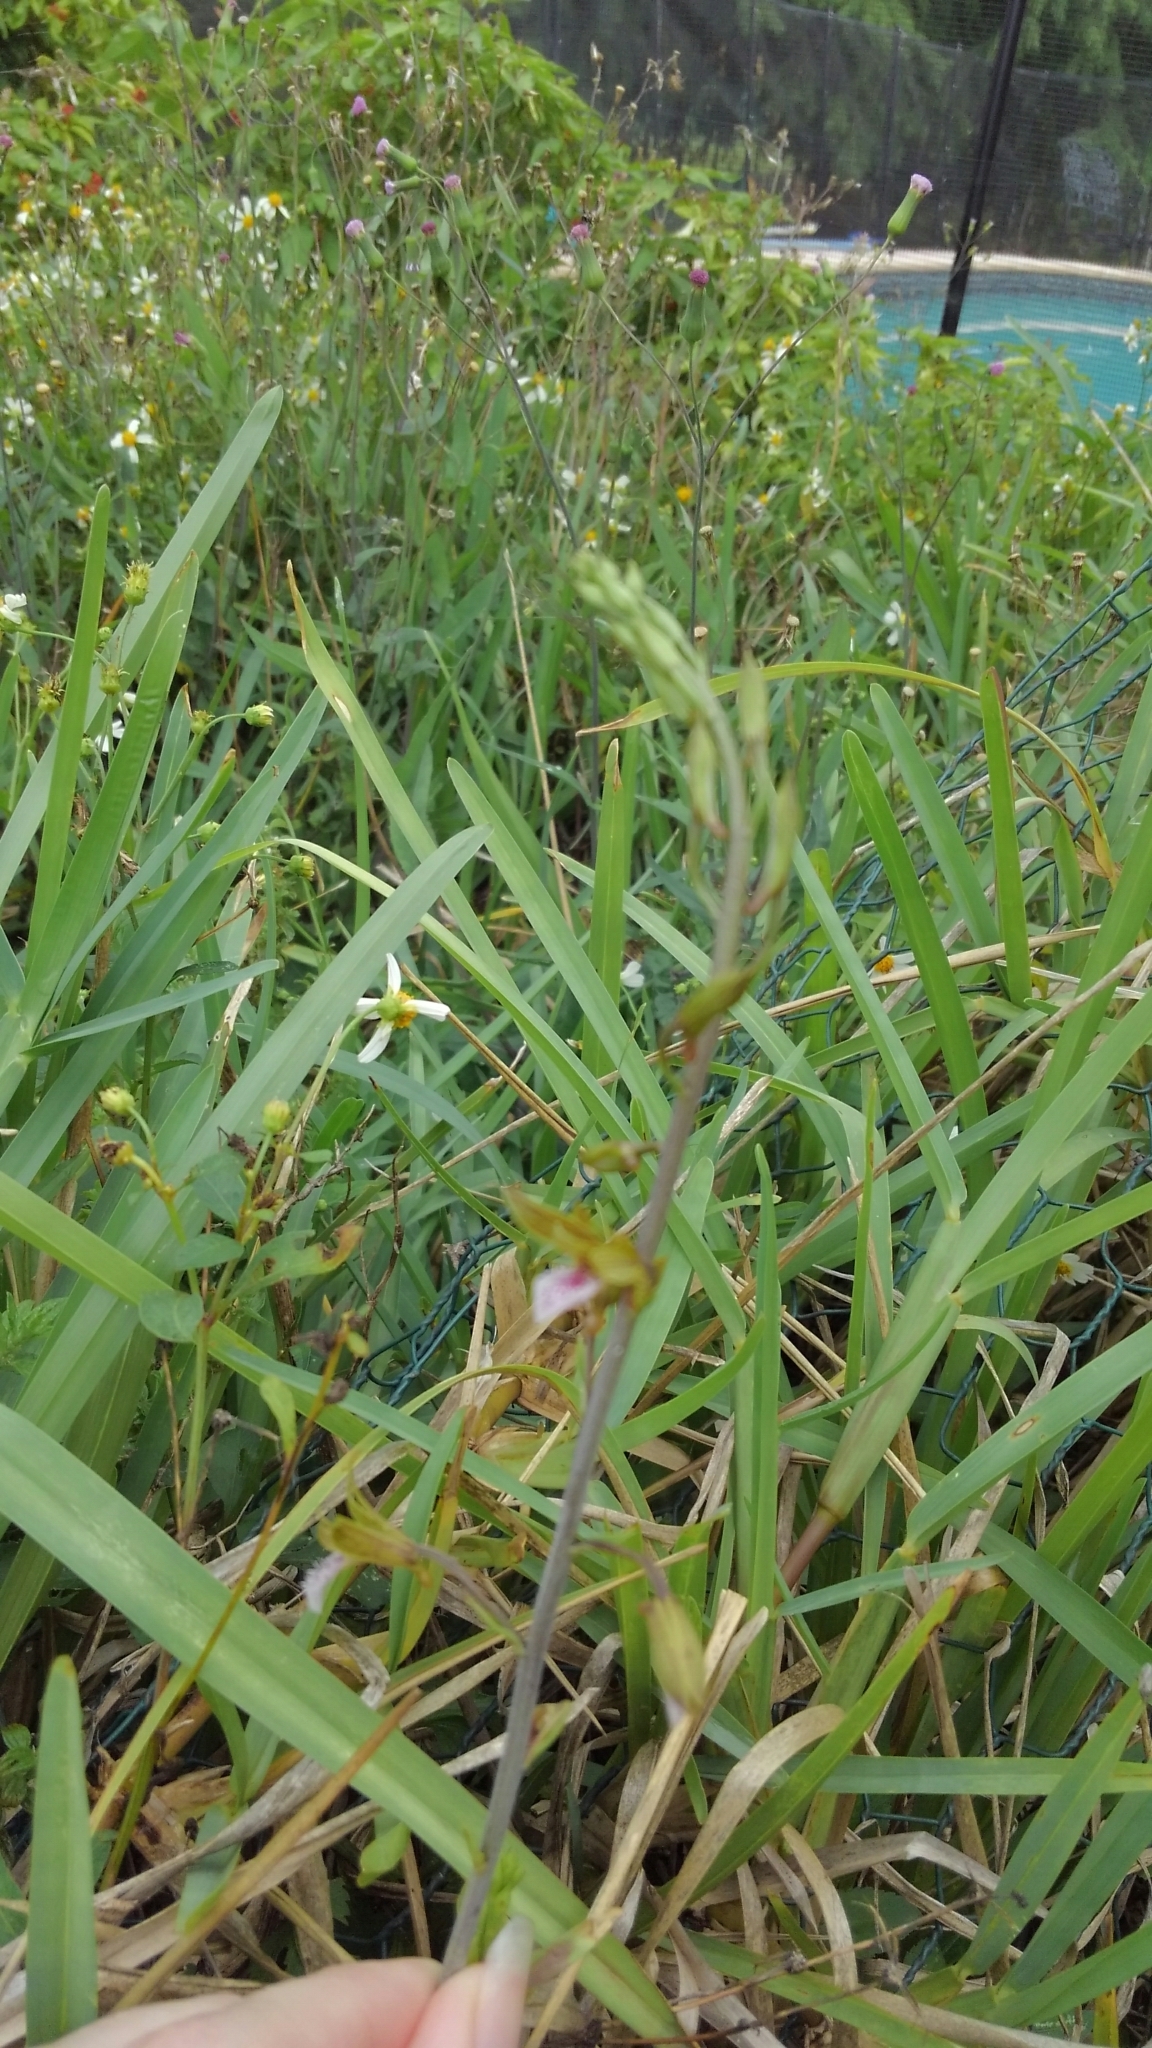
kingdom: Plantae
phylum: Tracheophyta
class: Liliopsida
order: Asparagales
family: Orchidaceae
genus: Eulophia
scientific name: Eulophia graminea
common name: Orchid
